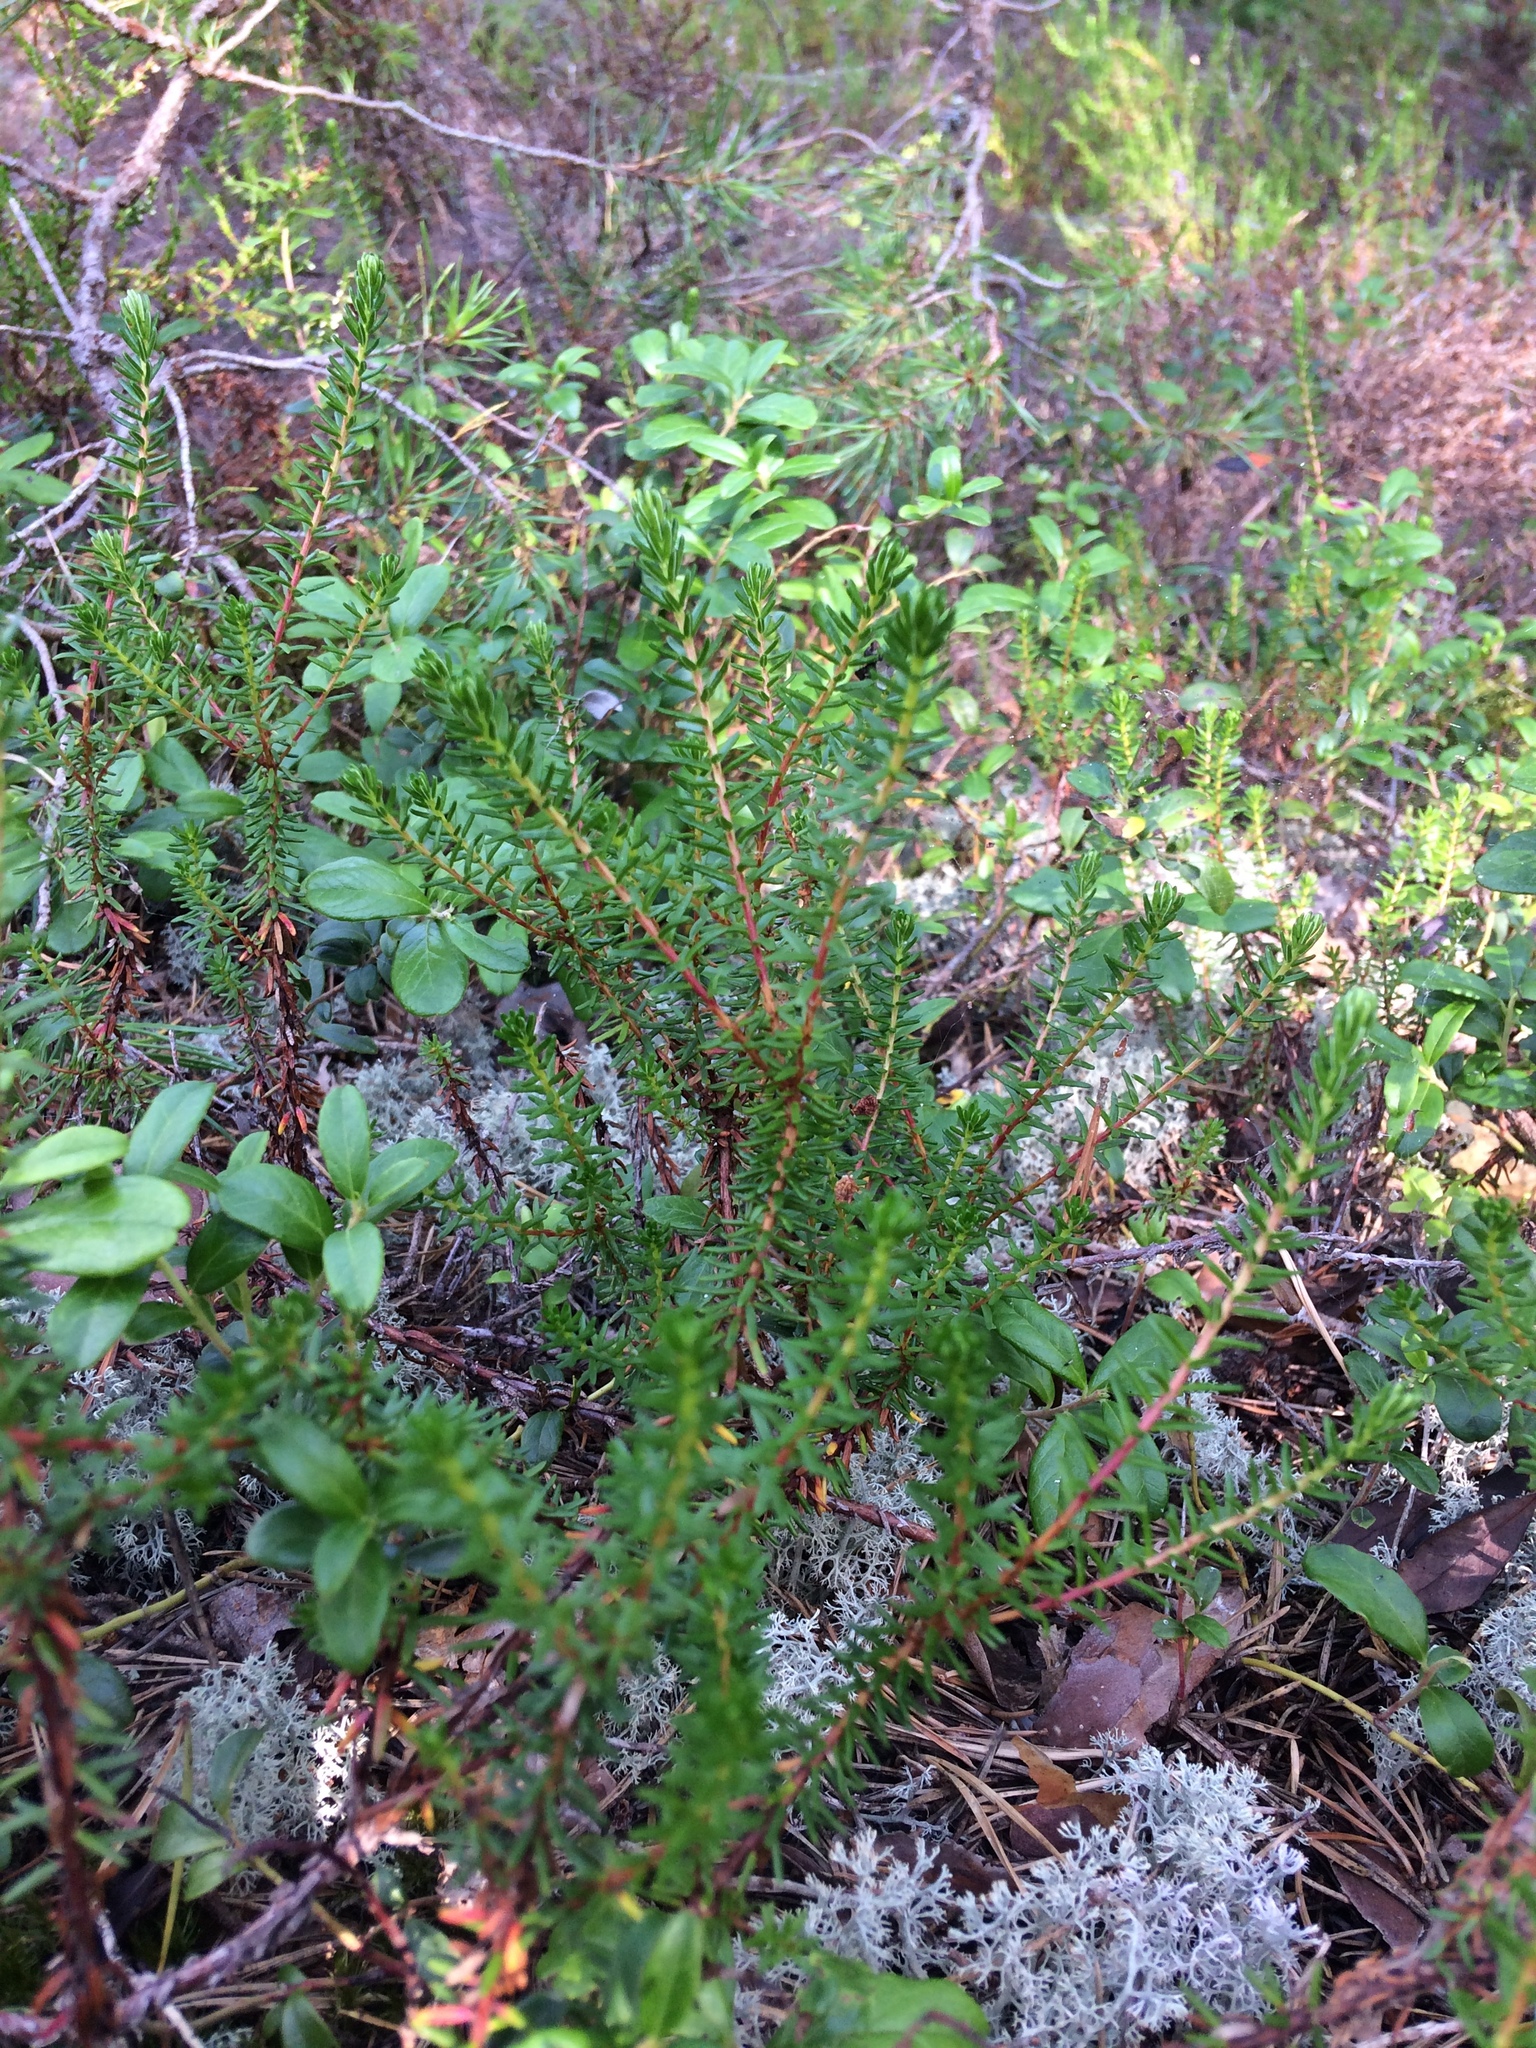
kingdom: Plantae
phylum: Tracheophyta
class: Magnoliopsida
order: Ericales
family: Ericaceae
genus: Empetrum
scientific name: Empetrum nigrum
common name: Black crowberry
